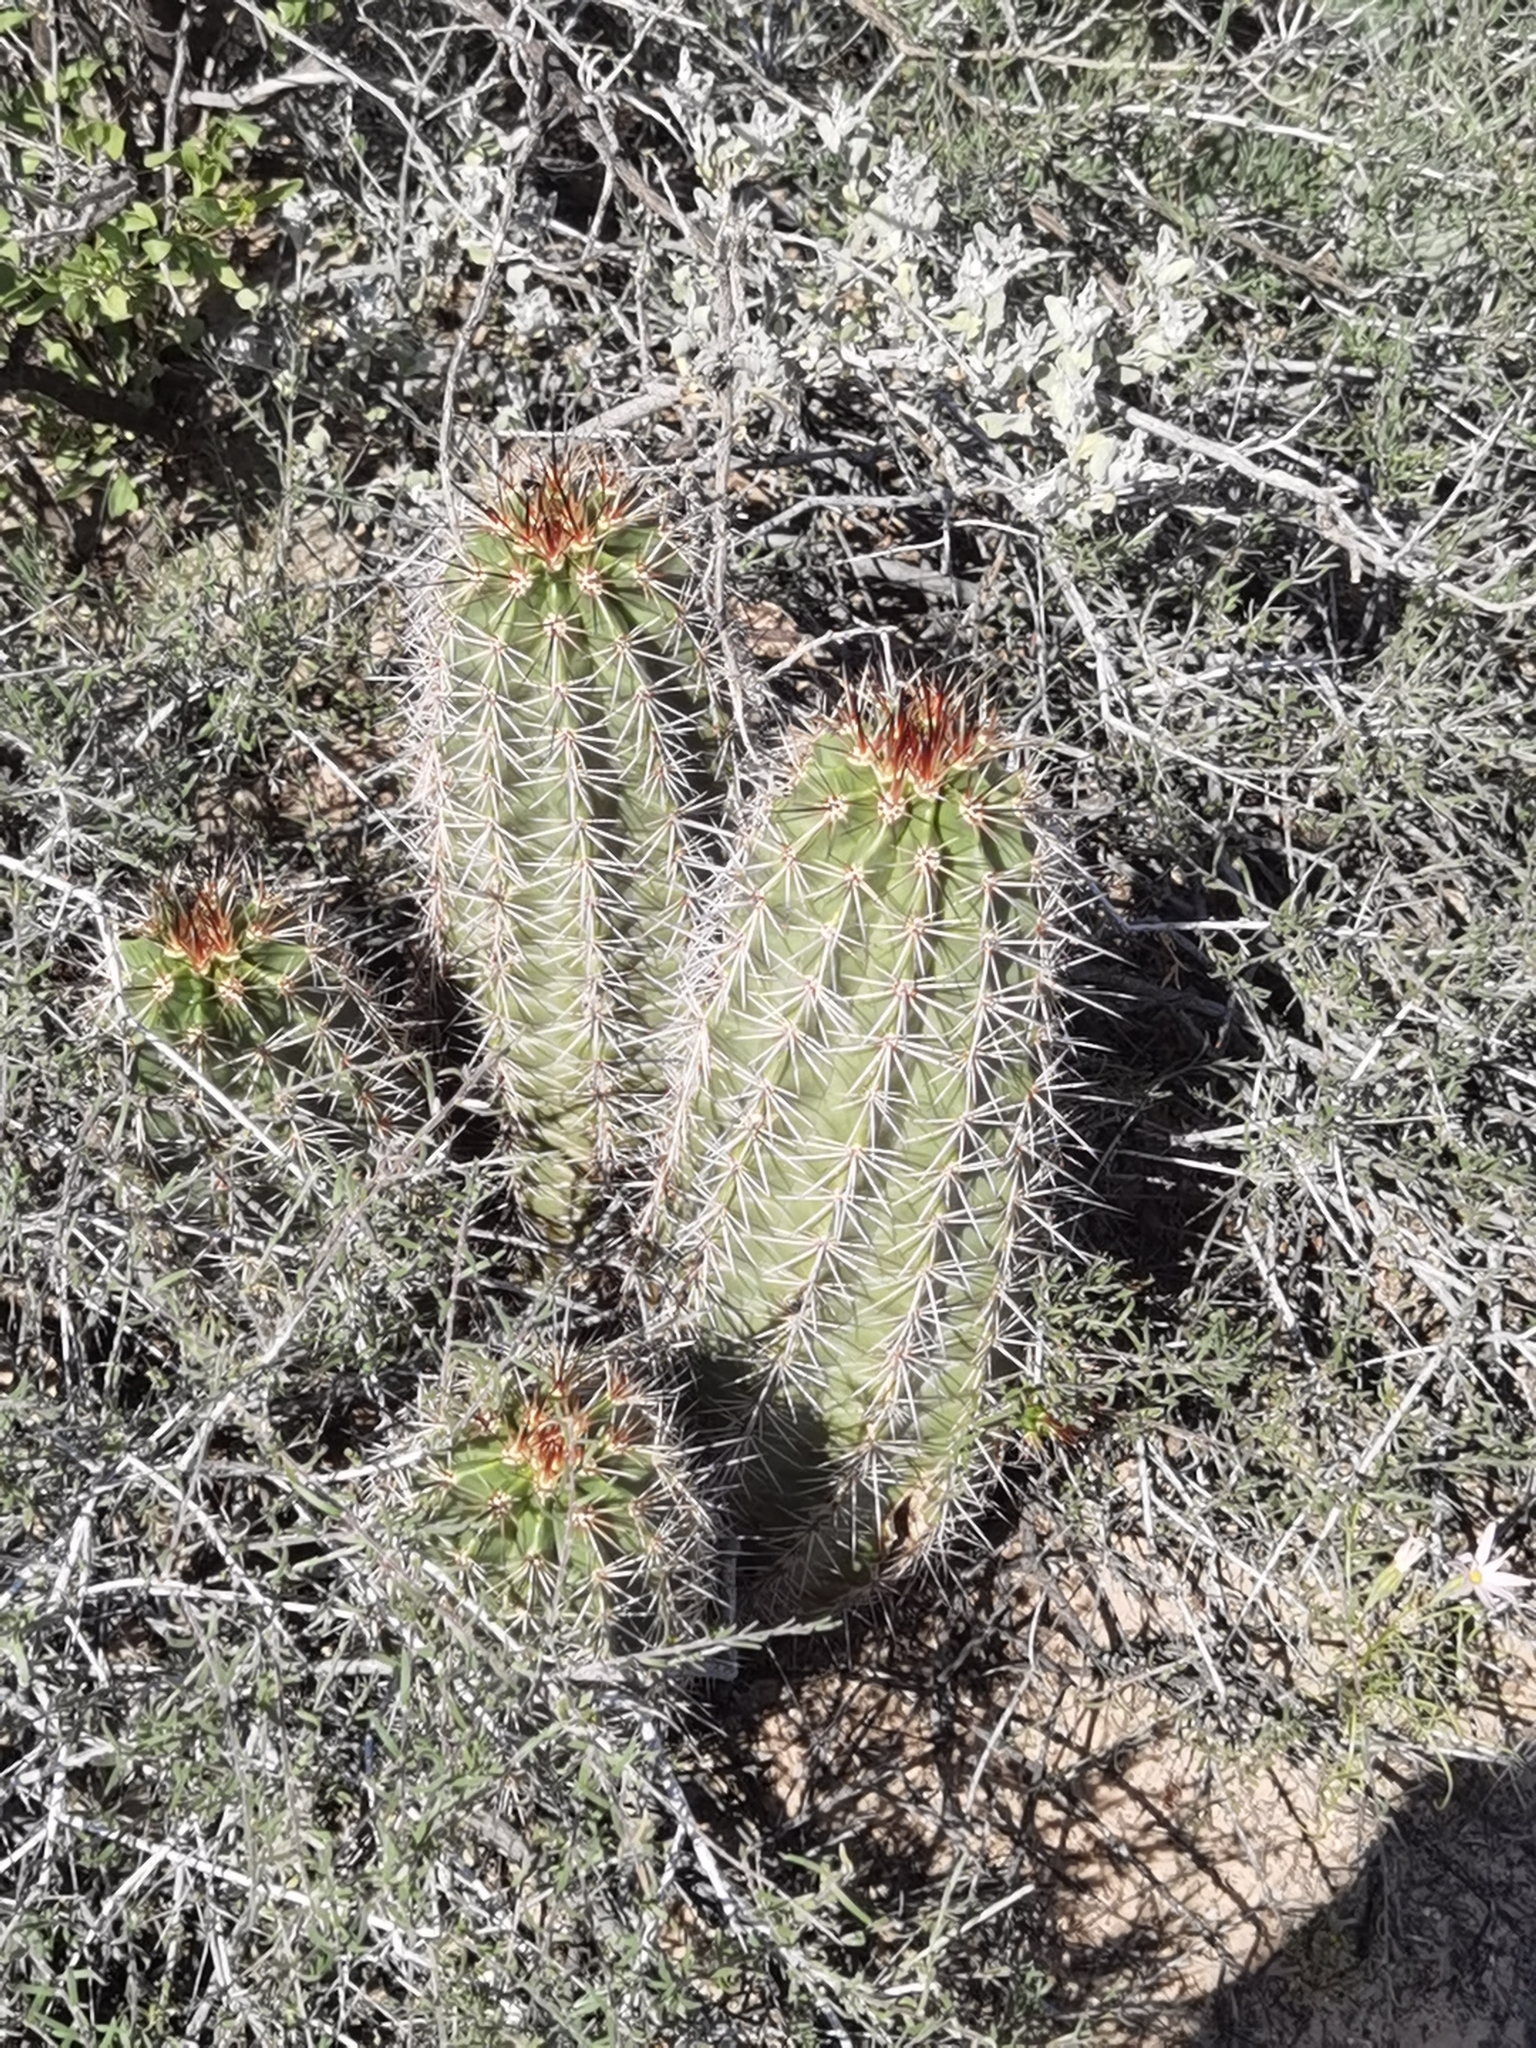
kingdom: Plantae
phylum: Tracheophyta
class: Magnoliopsida
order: Caryophyllales
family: Cactaceae
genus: Echinocereus
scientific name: Echinocereus coccineus
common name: Scarlet hedgehog cactus
